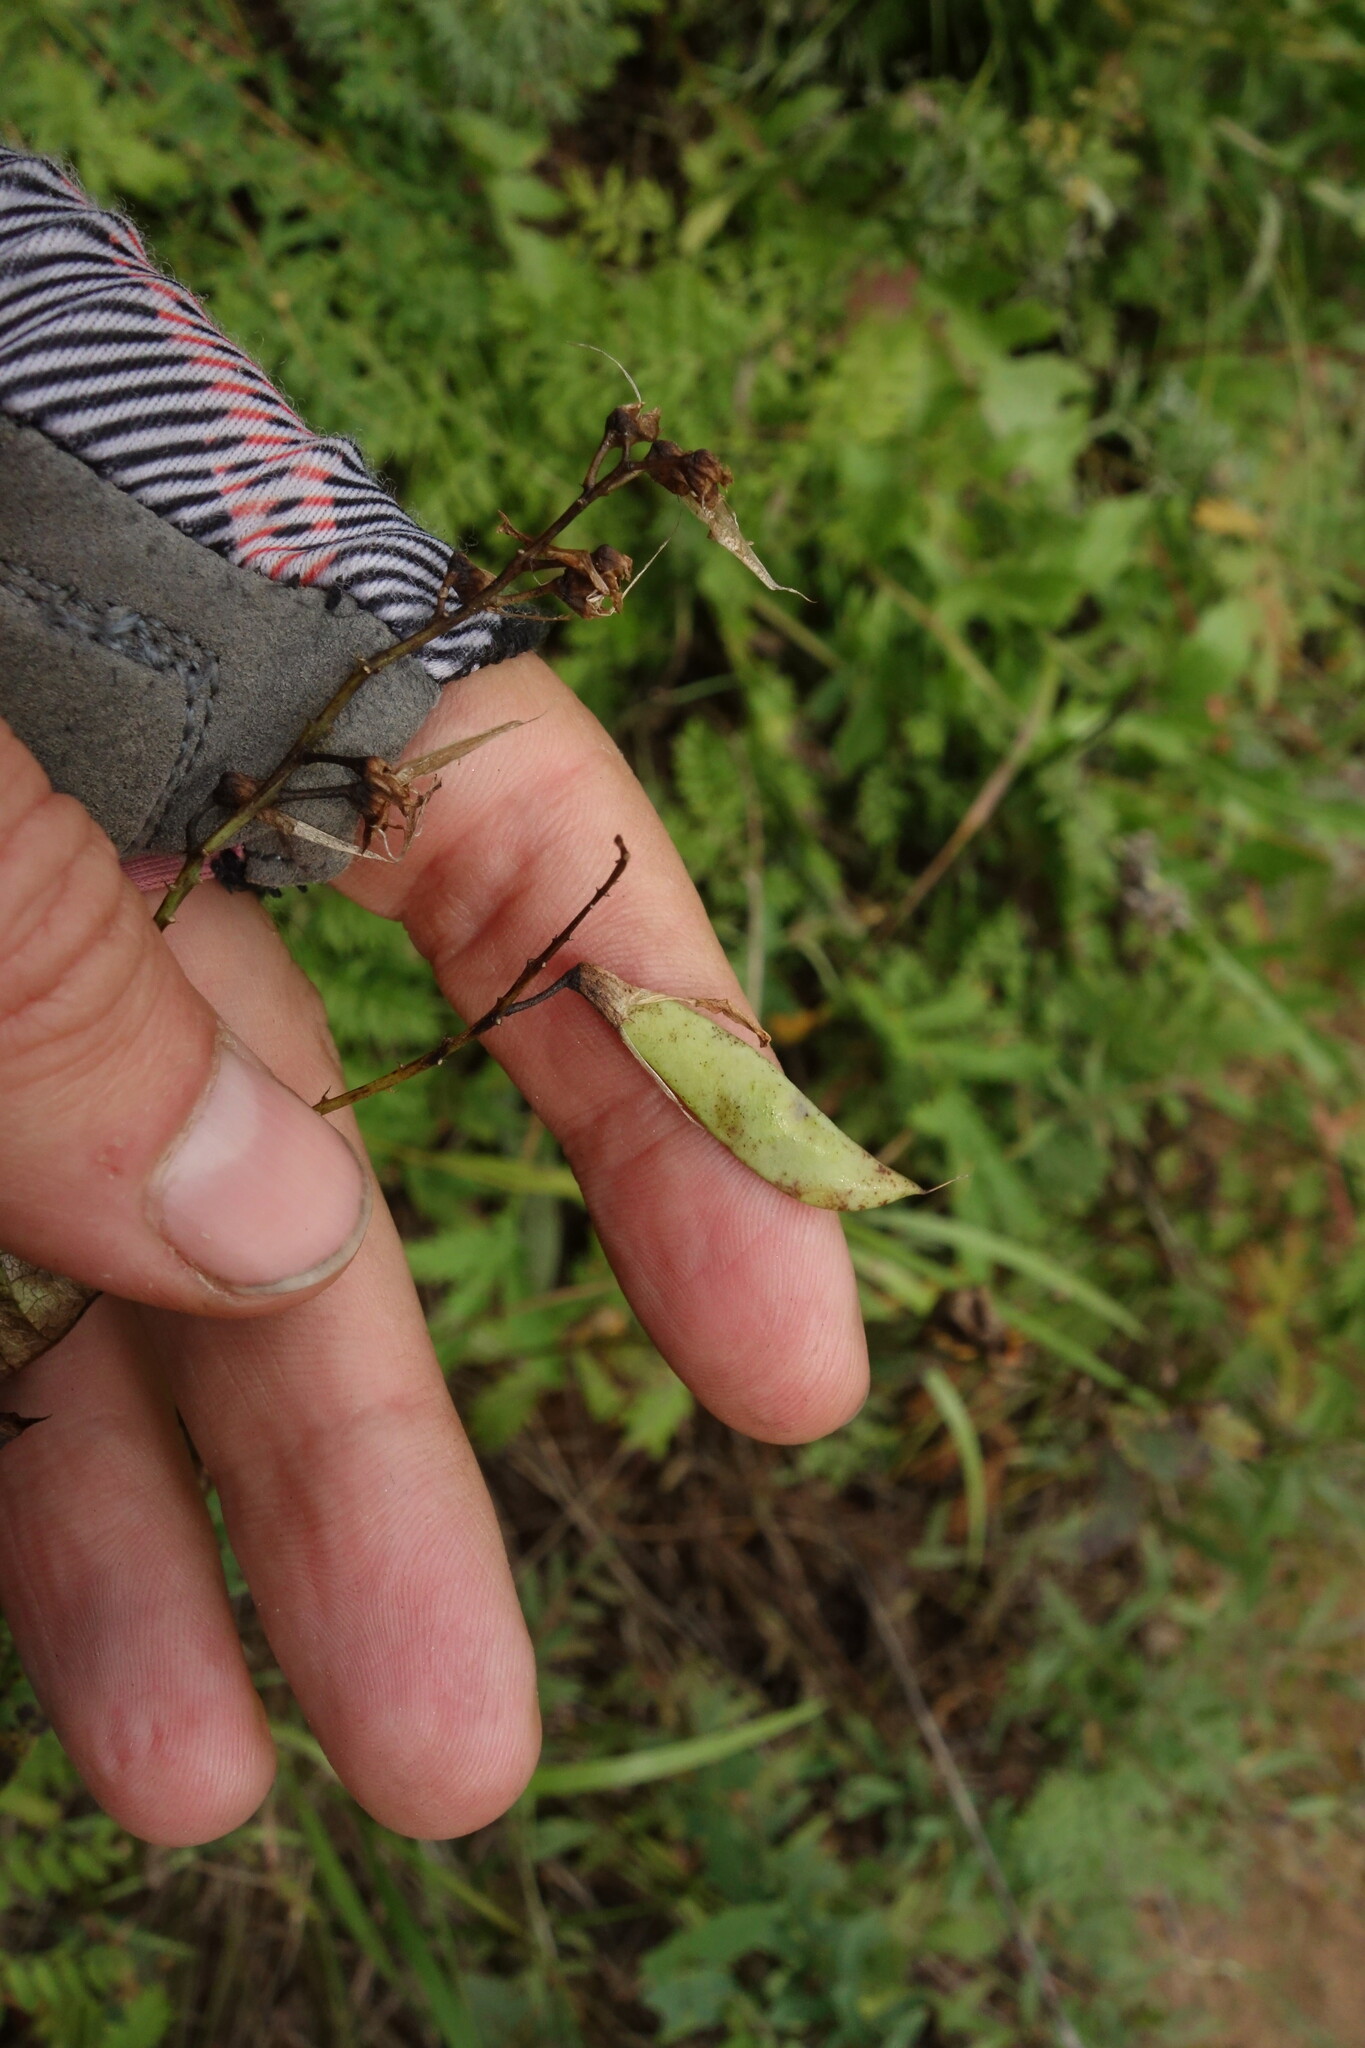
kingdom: Plantae
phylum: Tracheophyta
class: Magnoliopsida
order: Fabales
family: Fabaceae
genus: Vicia
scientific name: Vicia unijuga
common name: Two-leaf vetch
